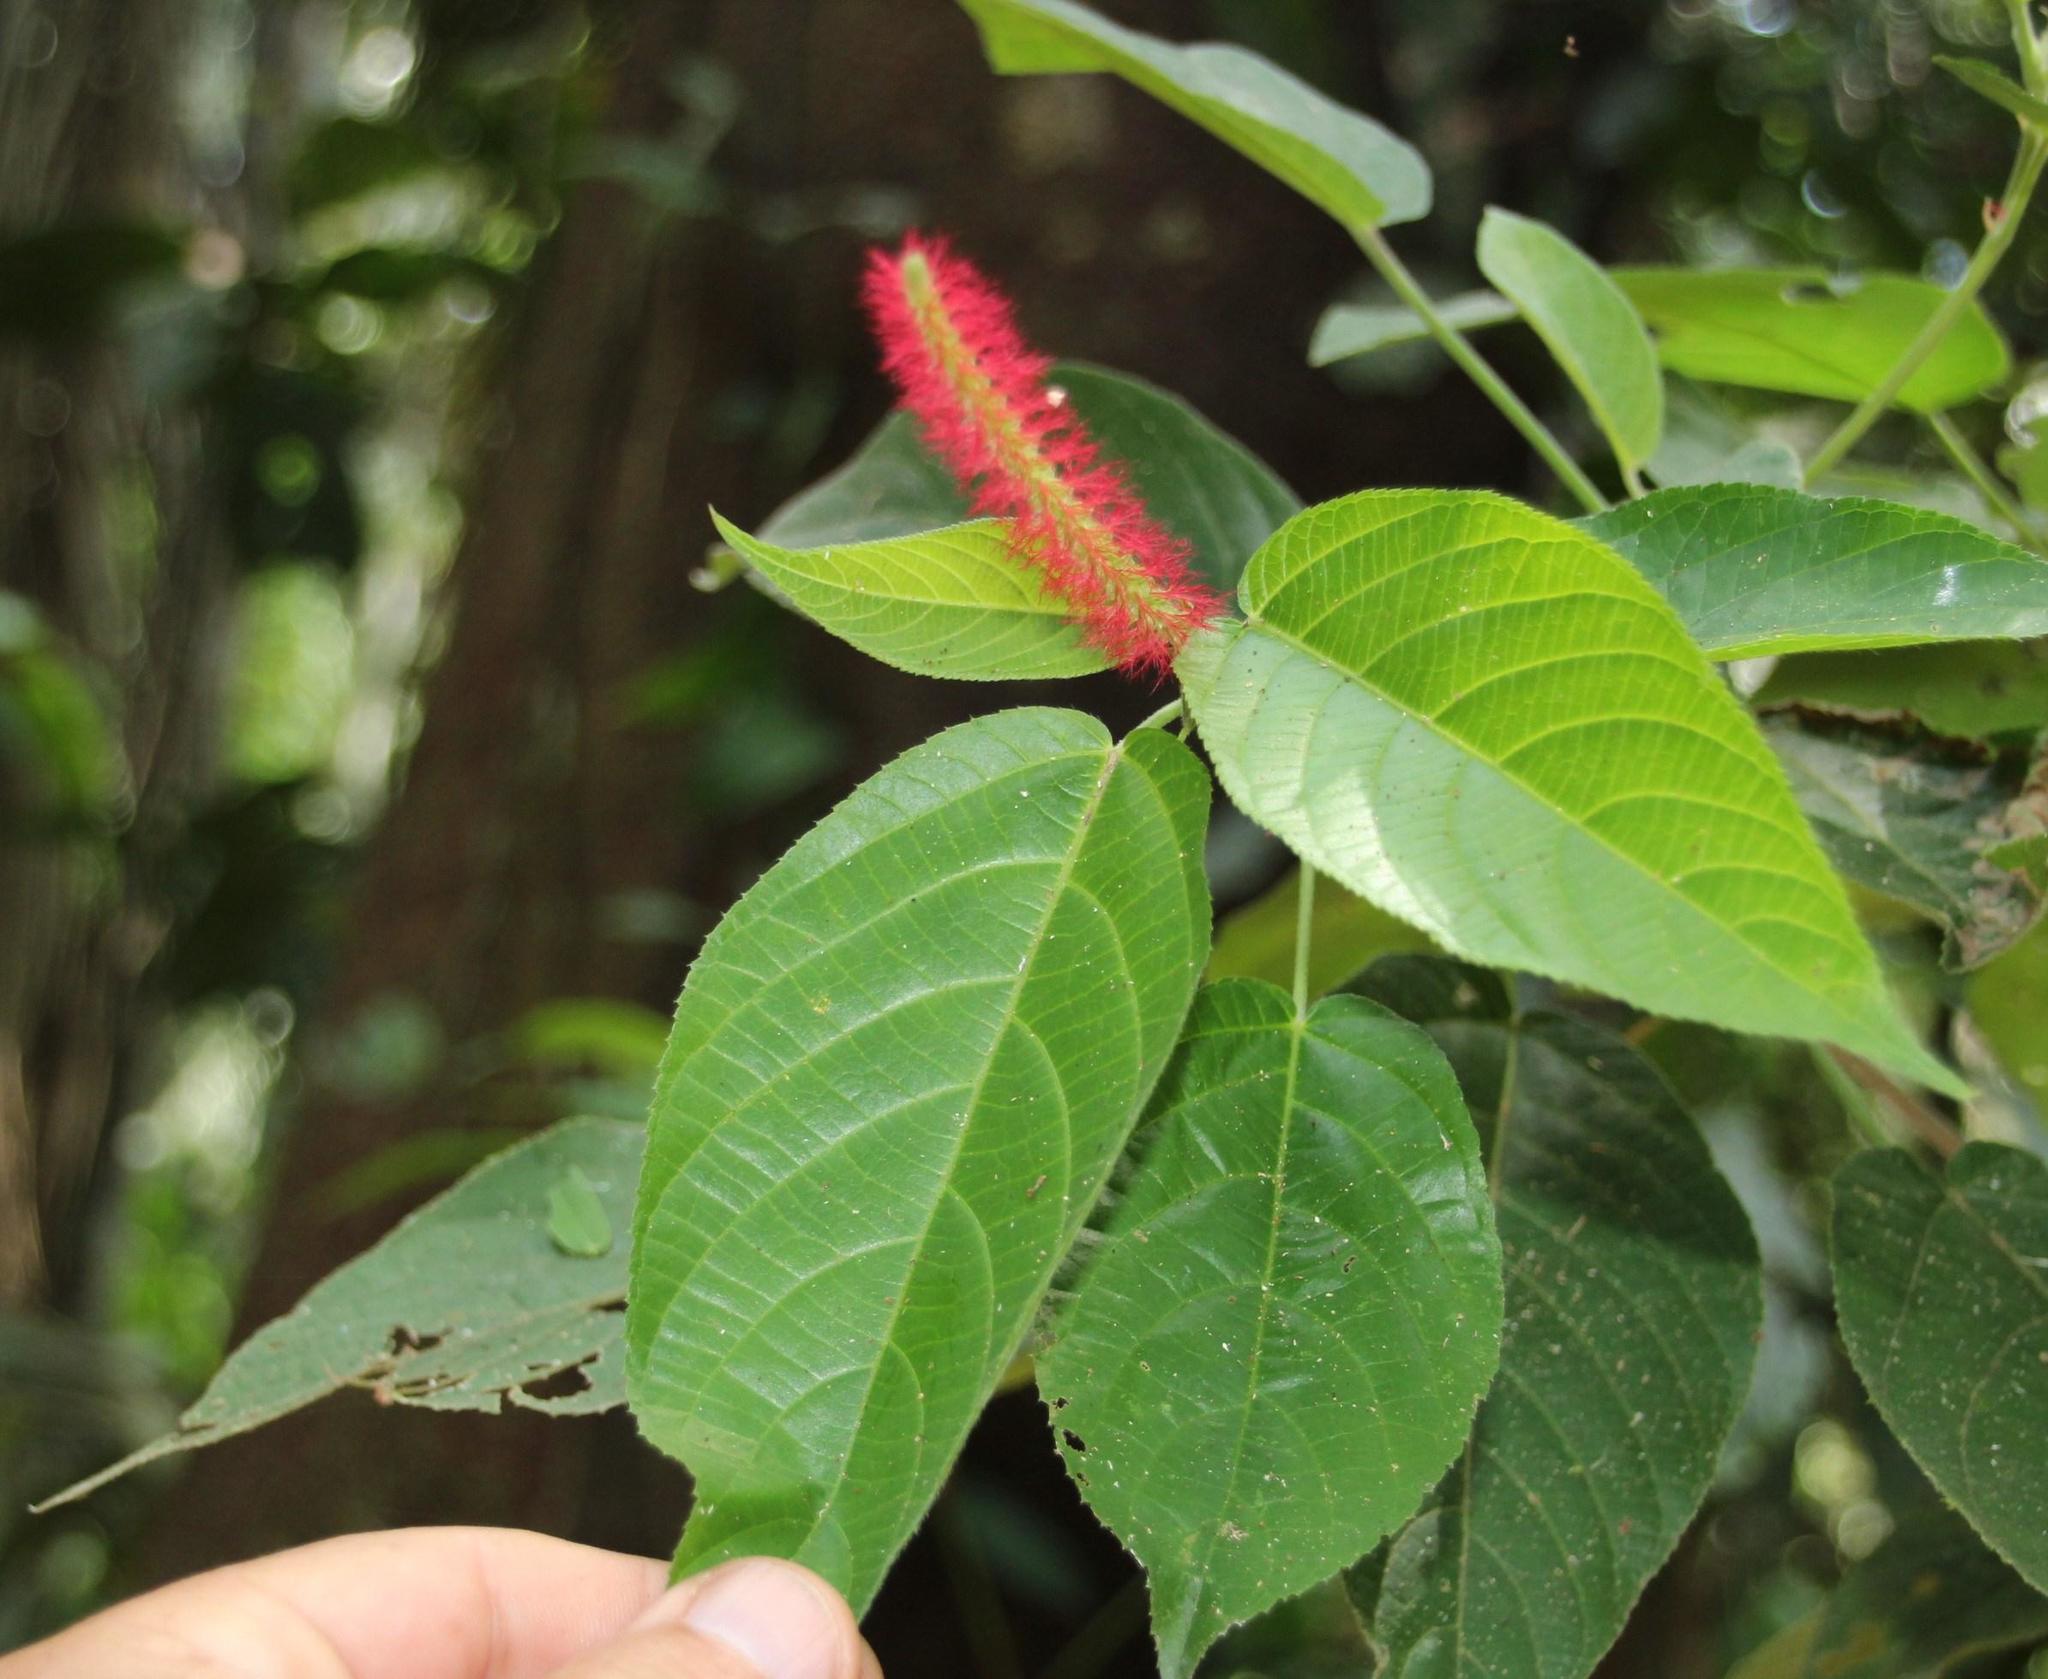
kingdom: Plantae
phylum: Tracheophyta
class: Magnoliopsida
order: Malpighiales
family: Euphorbiaceae
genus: Acalypha
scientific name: Acalypha stachyura
